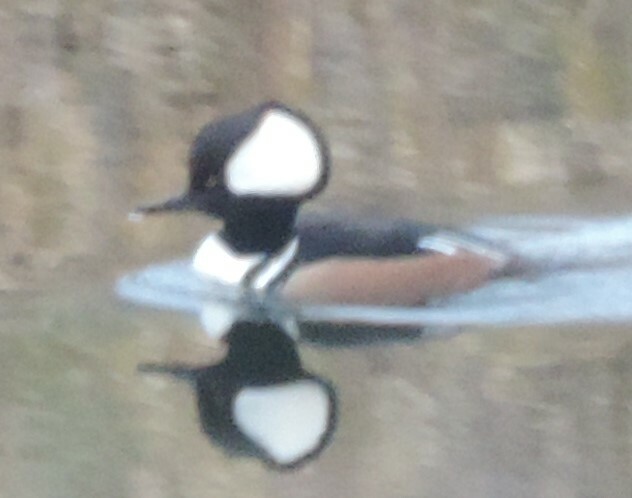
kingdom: Animalia
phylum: Chordata
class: Aves
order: Anseriformes
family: Anatidae
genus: Lophodytes
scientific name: Lophodytes cucullatus
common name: Hooded merganser
